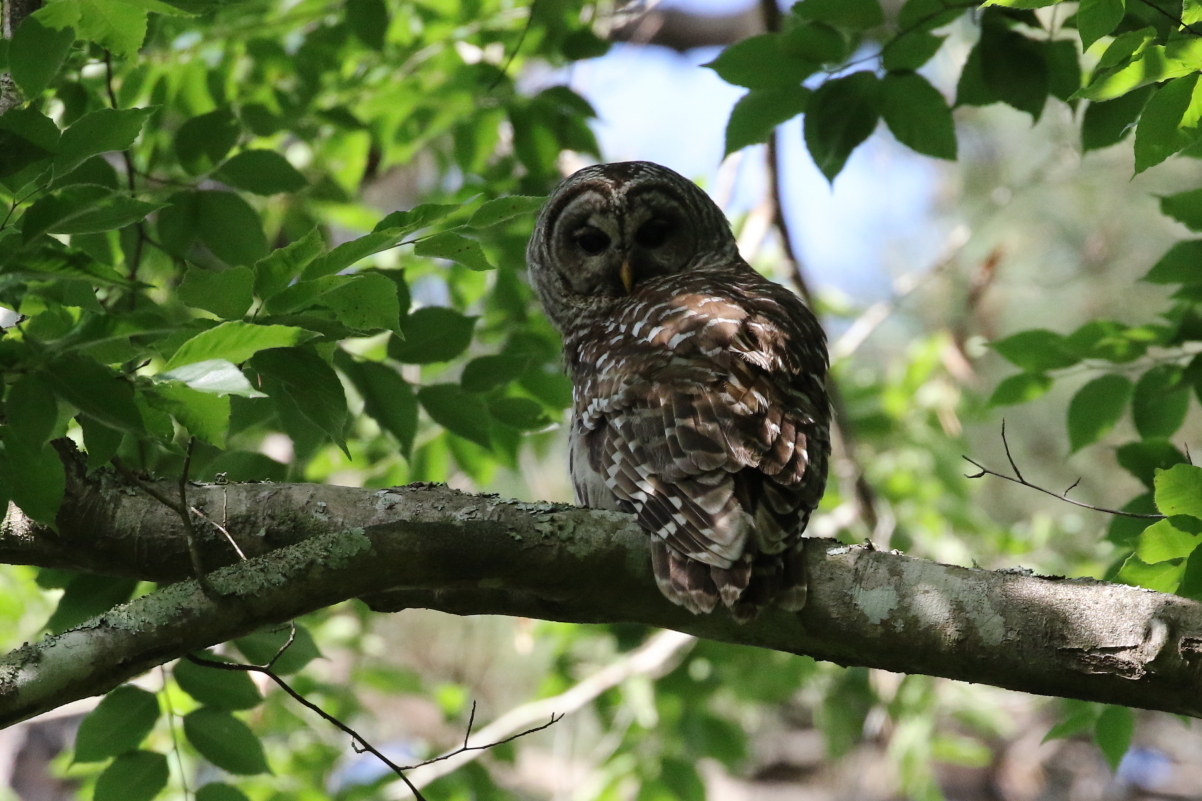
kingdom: Animalia
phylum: Chordata
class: Aves
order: Strigiformes
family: Strigidae
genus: Strix
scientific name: Strix varia
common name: Barred owl
